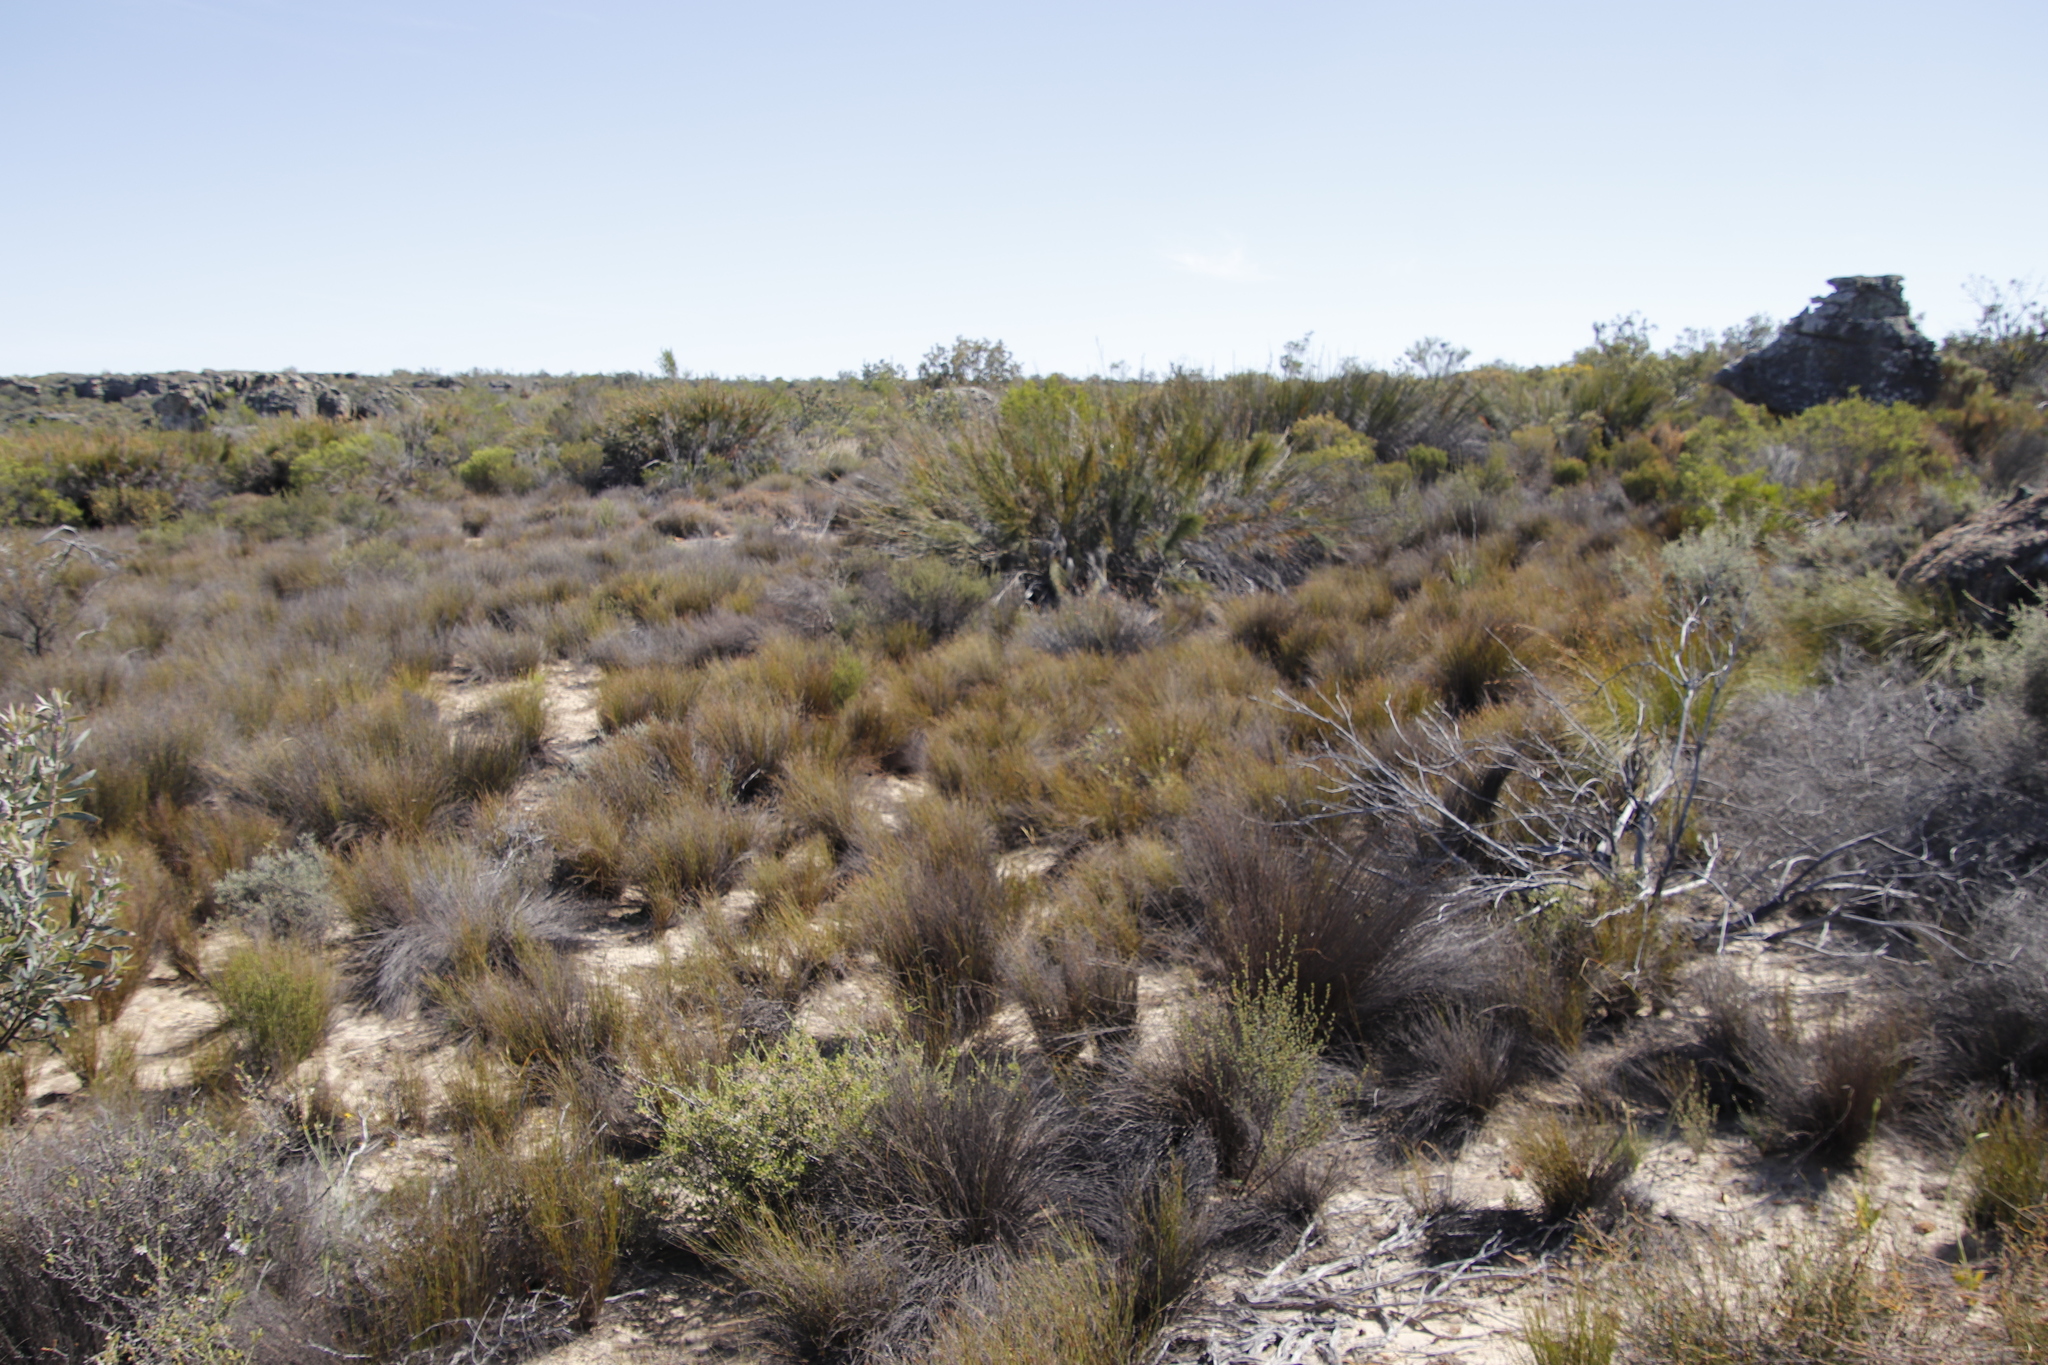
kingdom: Plantae
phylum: Tracheophyta
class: Liliopsida
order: Poales
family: Restionaceae
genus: Cannomois
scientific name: Cannomois robusta
